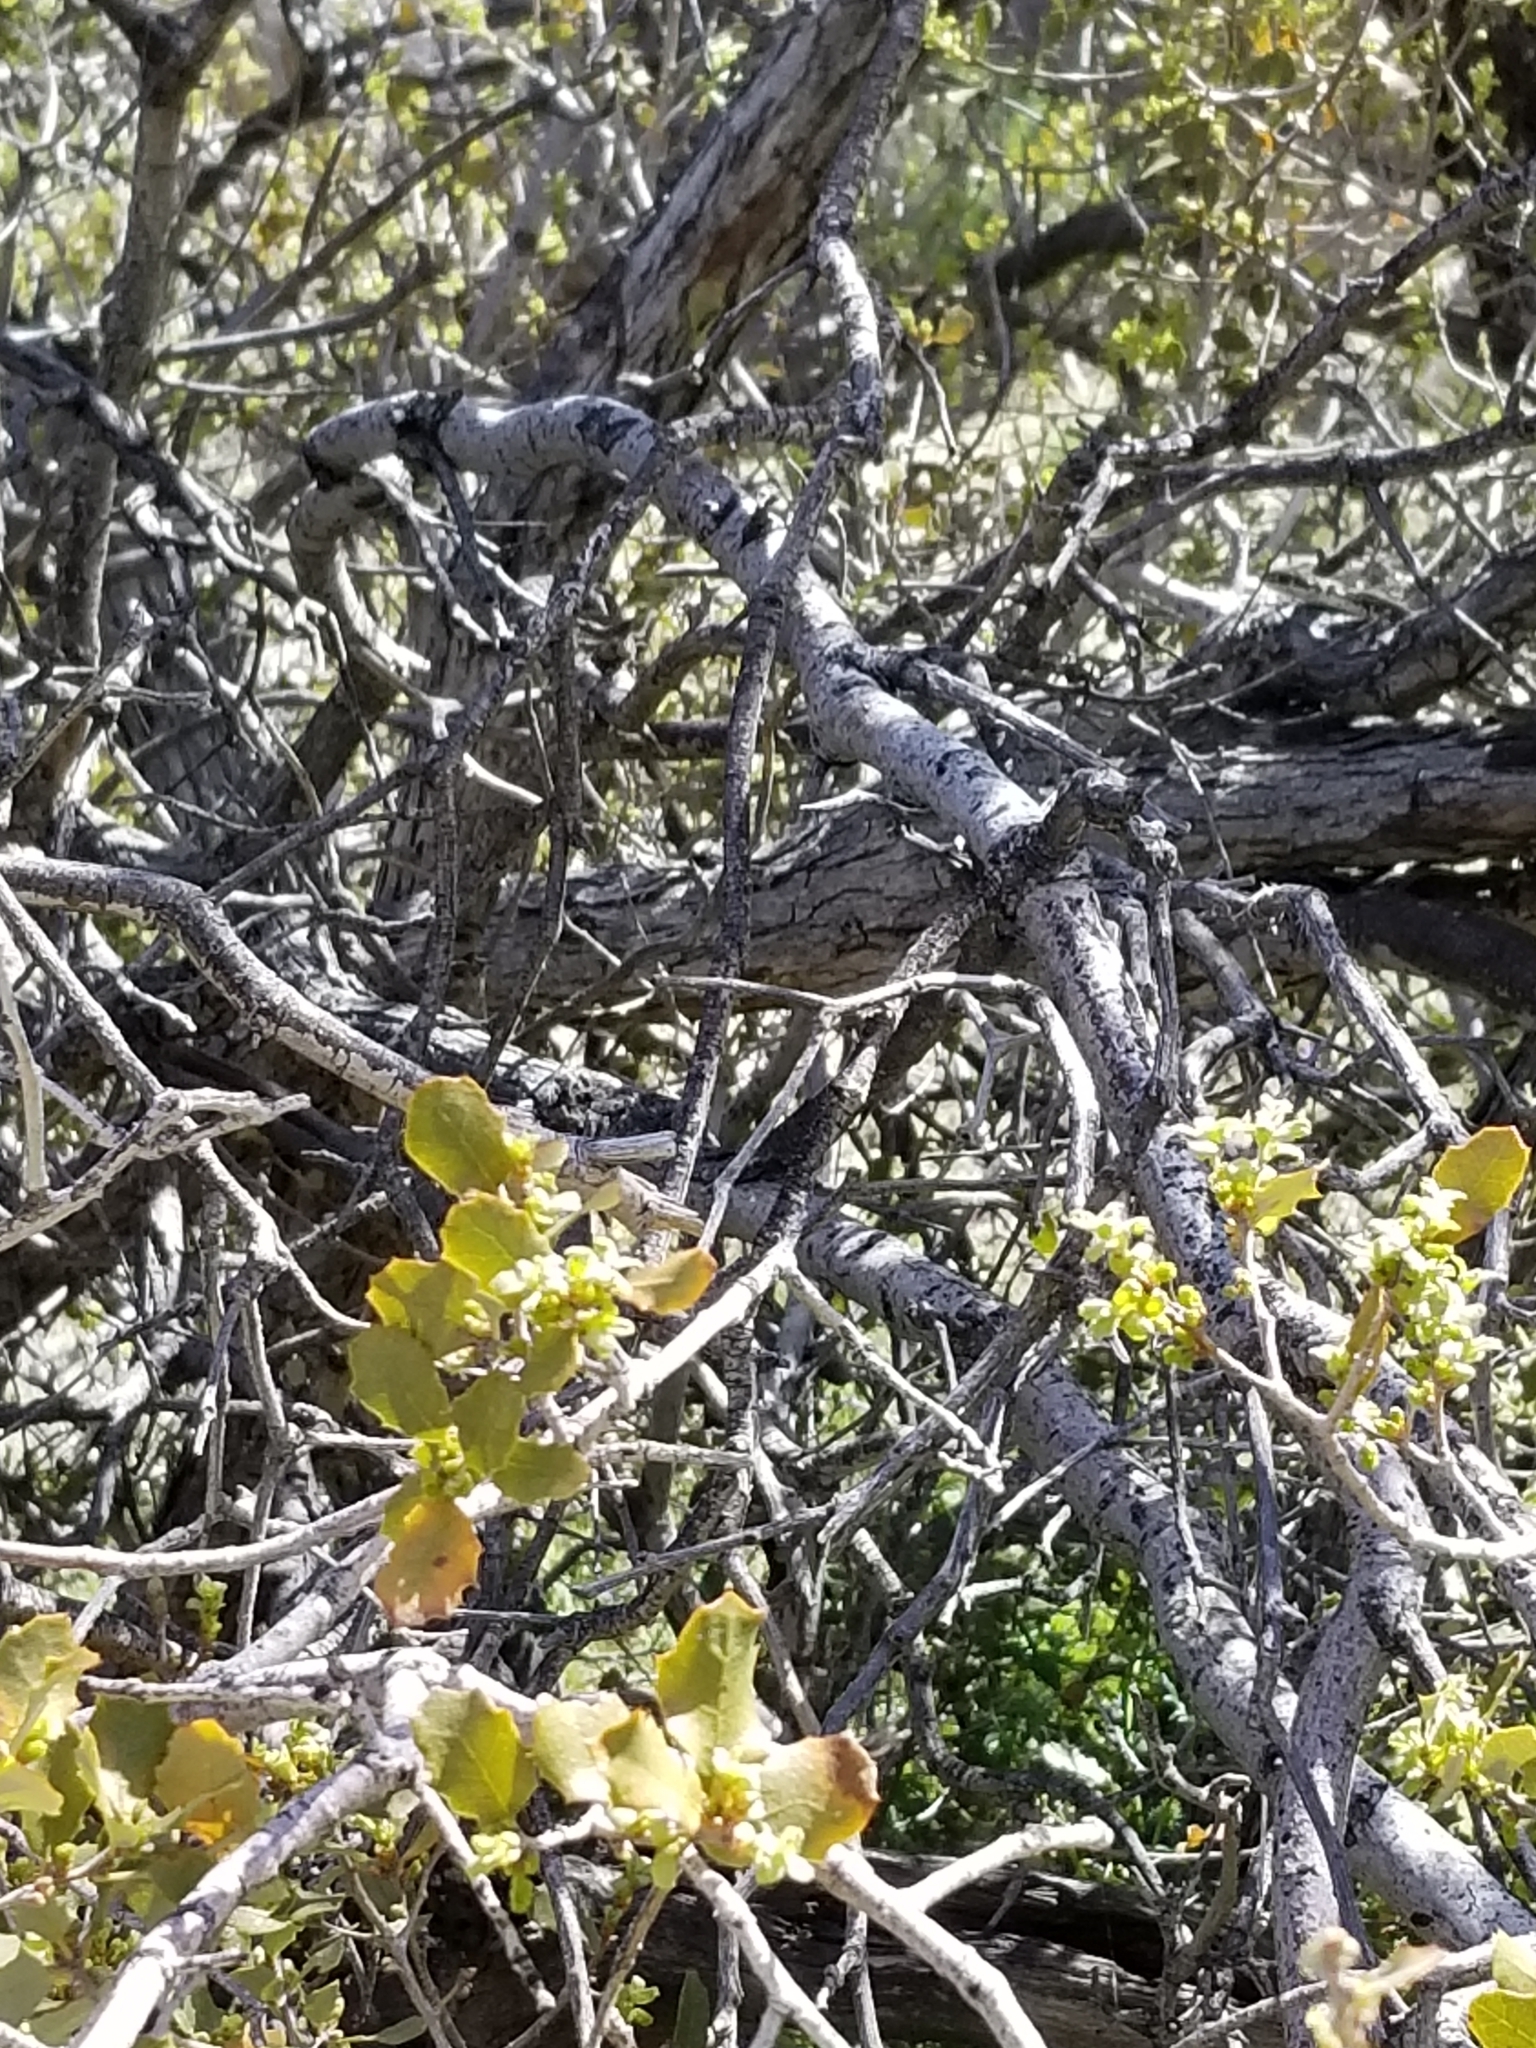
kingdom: Plantae
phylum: Tracheophyta
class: Magnoliopsida
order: Fagales
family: Fagaceae
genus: Quercus
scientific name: Quercus cornelius-mulleri
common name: Muller oak
